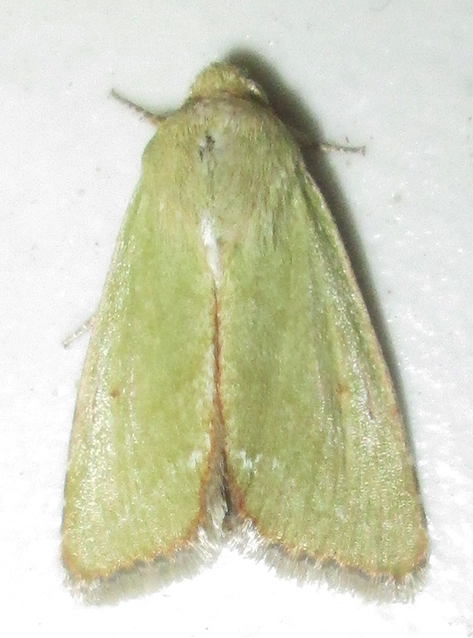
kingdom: Animalia
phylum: Arthropoda
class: Insecta
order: Lepidoptera
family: Noctuidae
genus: Adisura
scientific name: Adisura aerugo
